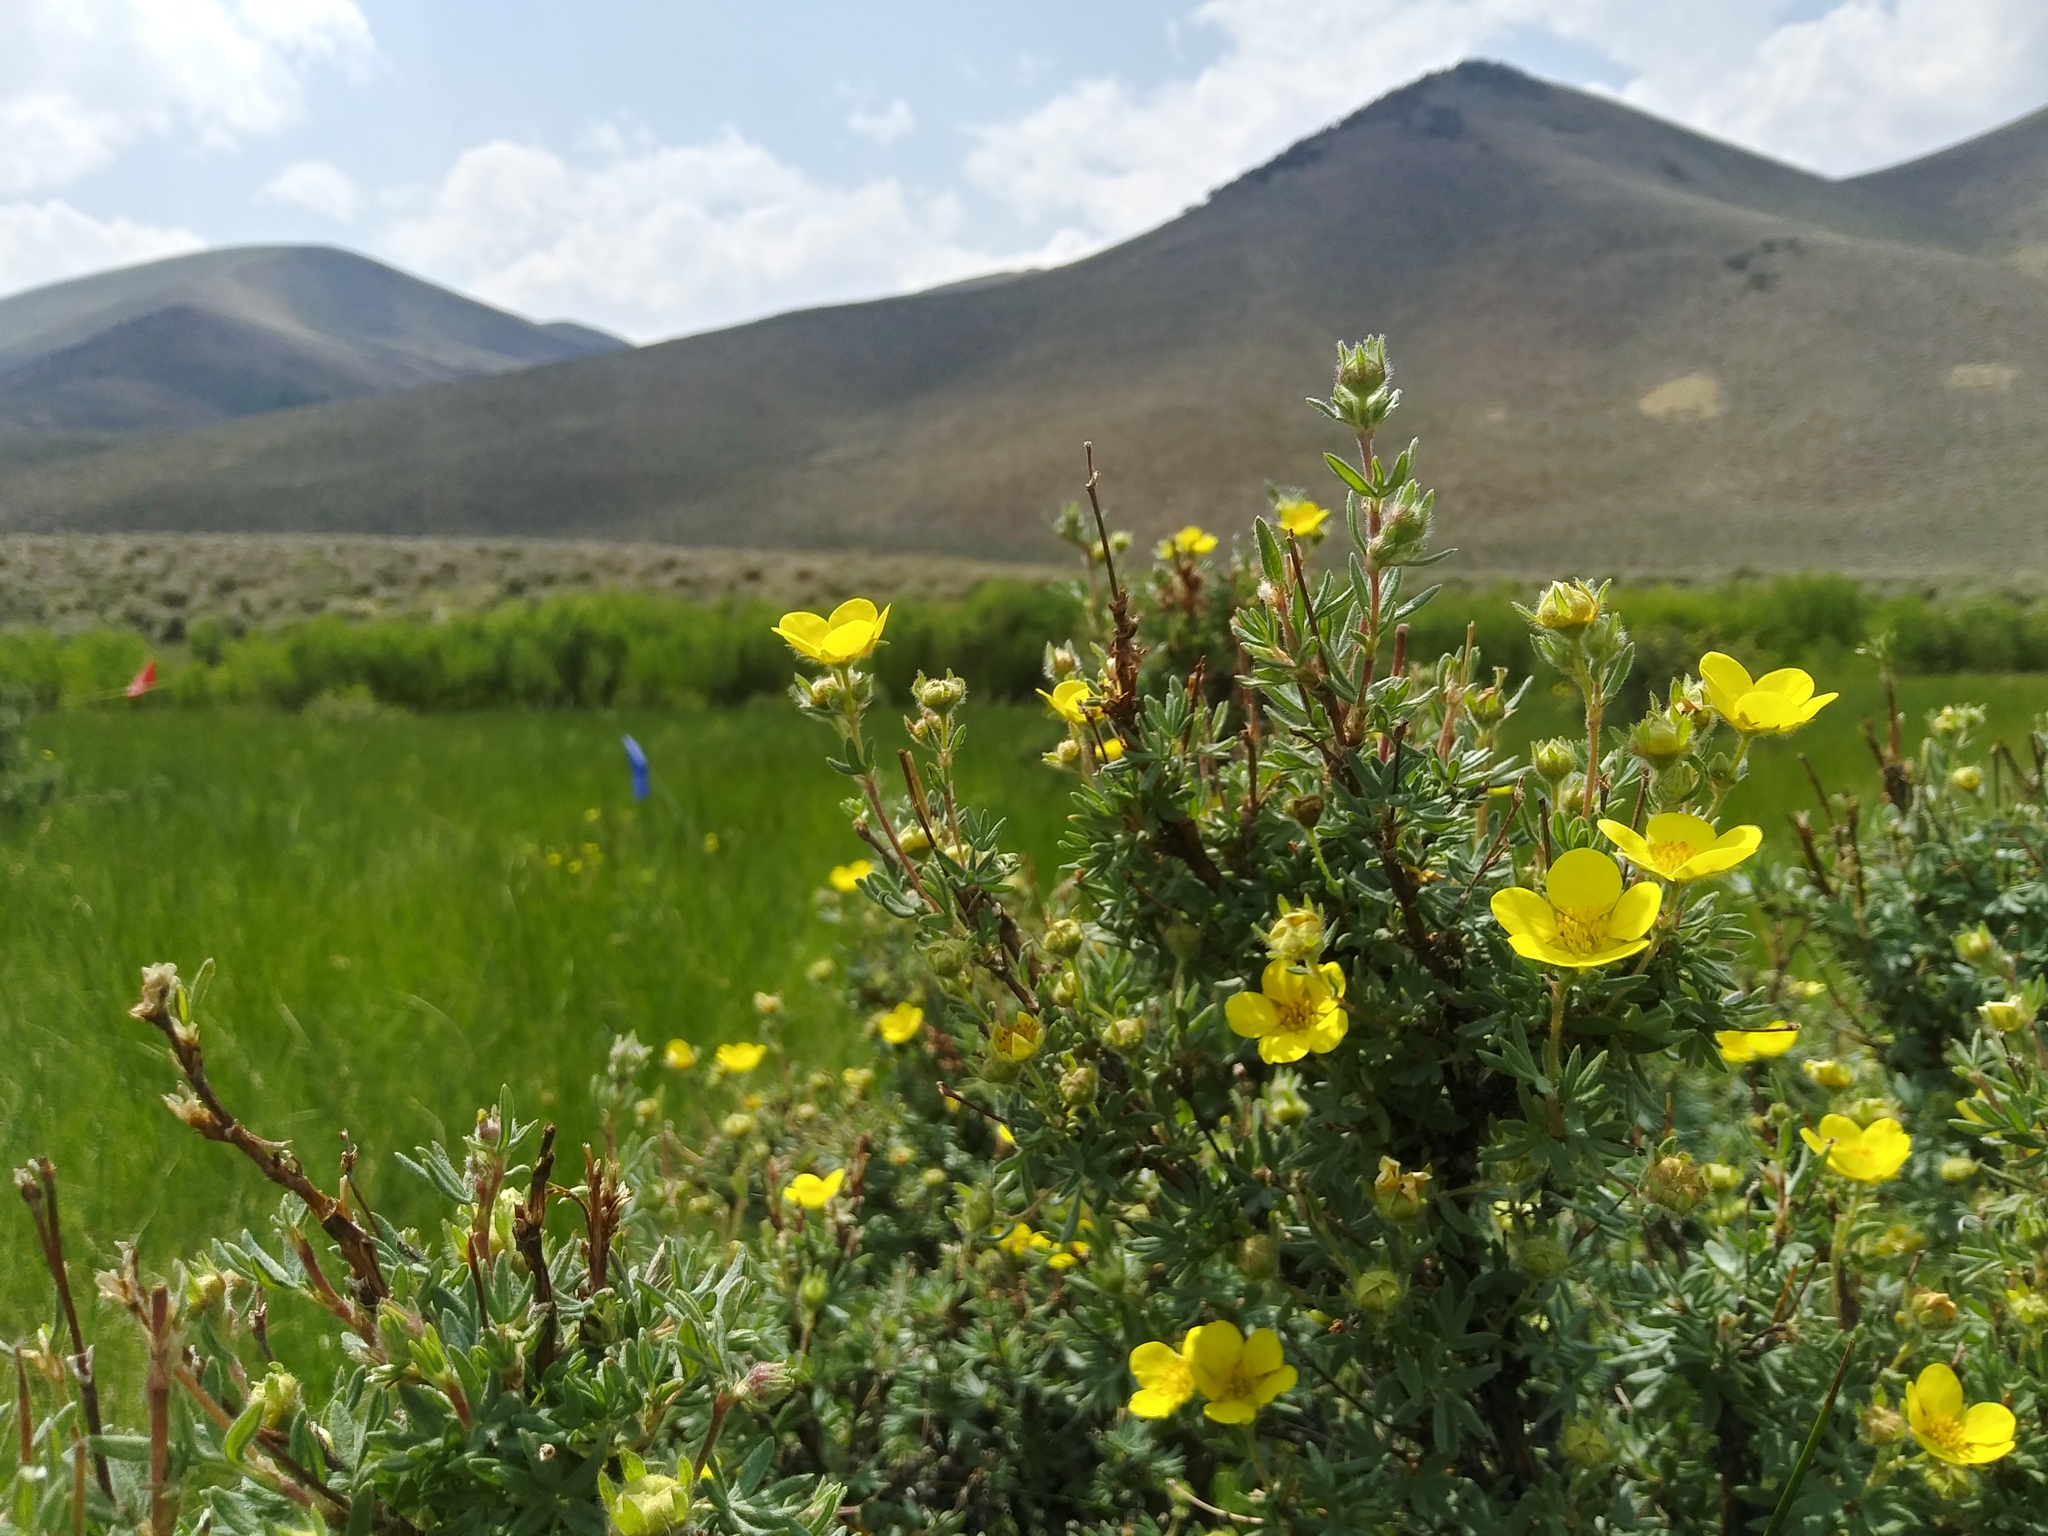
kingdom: Plantae
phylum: Tracheophyta
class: Magnoliopsida
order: Rosales
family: Rosaceae
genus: Dasiphora
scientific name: Dasiphora fruticosa
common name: Shrubby cinquefoil
